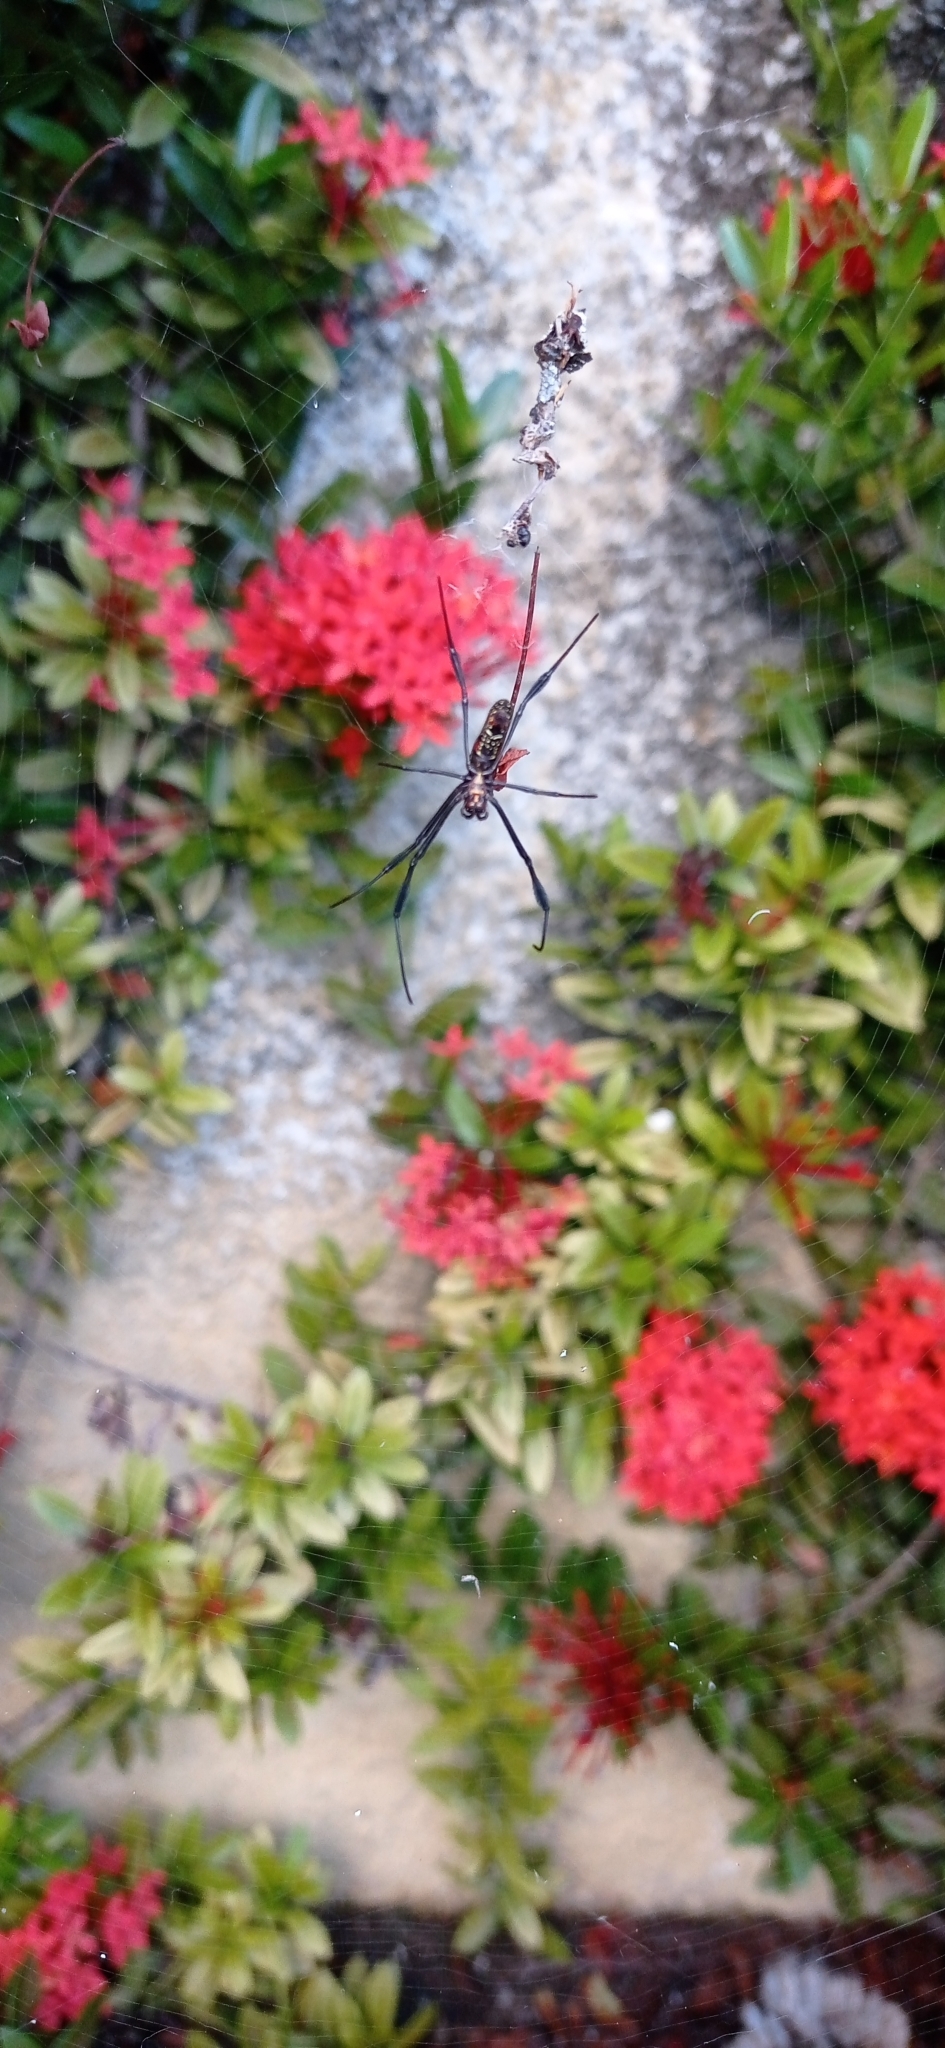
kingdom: Animalia
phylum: Arthropoda
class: Arachnida
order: Araneae
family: Araneidae
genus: Trichonephila
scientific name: Trichonephila clavipes
